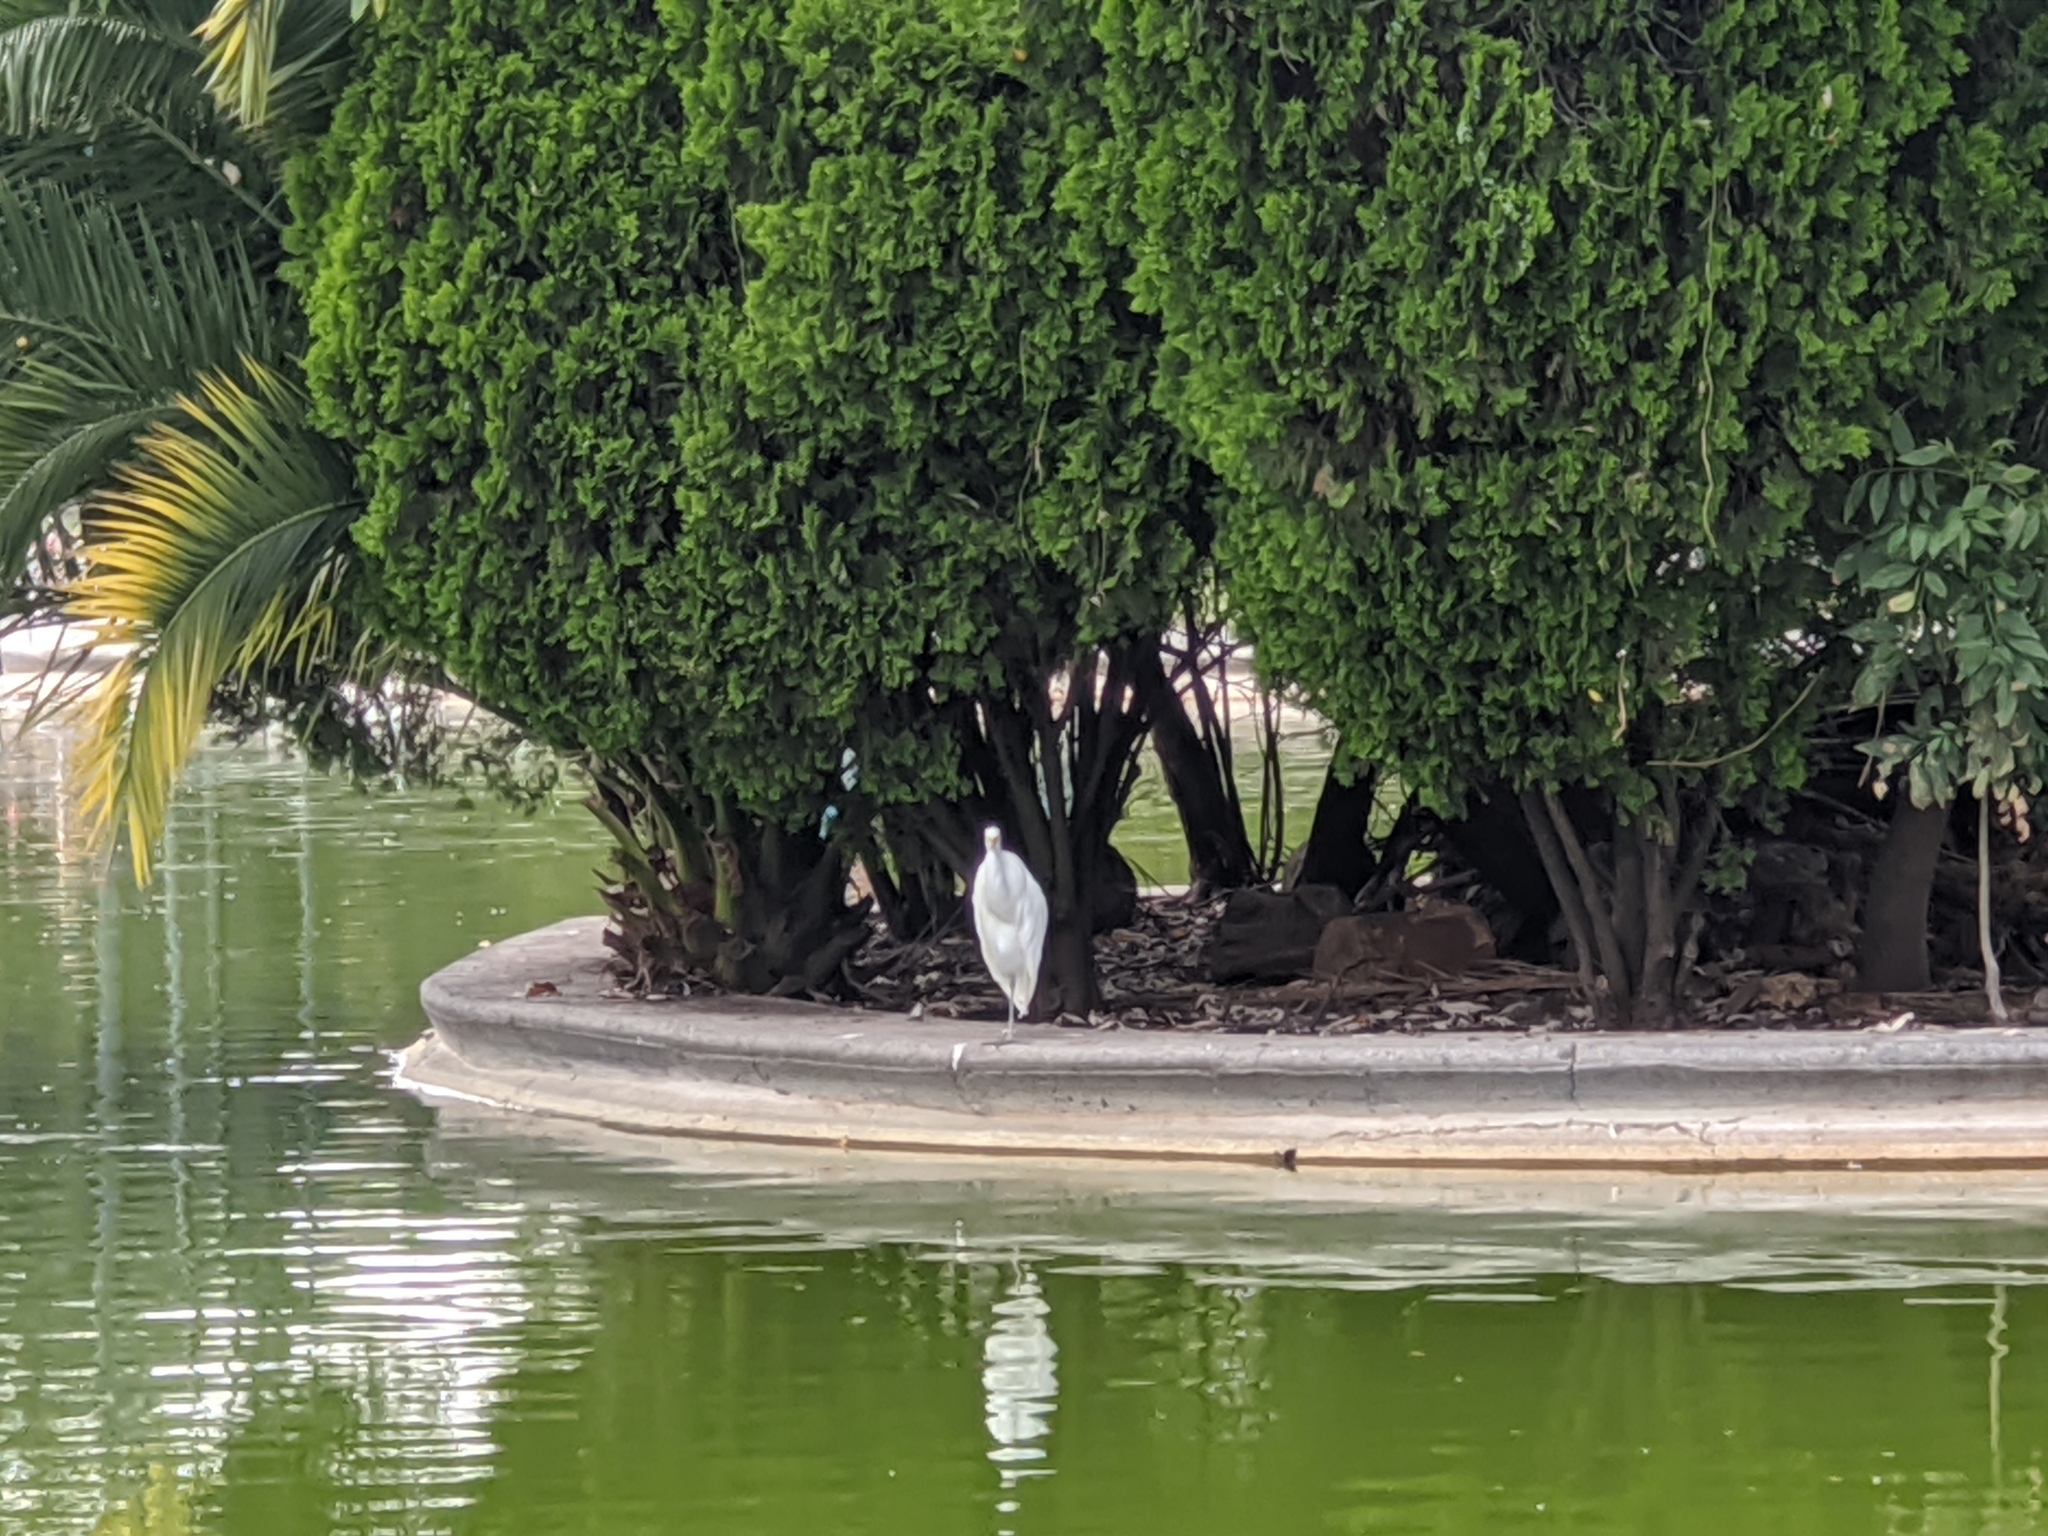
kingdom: Animalia
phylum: Chordata
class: Aves
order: Pelecaniformes
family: Ardeidae
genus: Ardea
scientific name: Ardea alba
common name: Great egret
